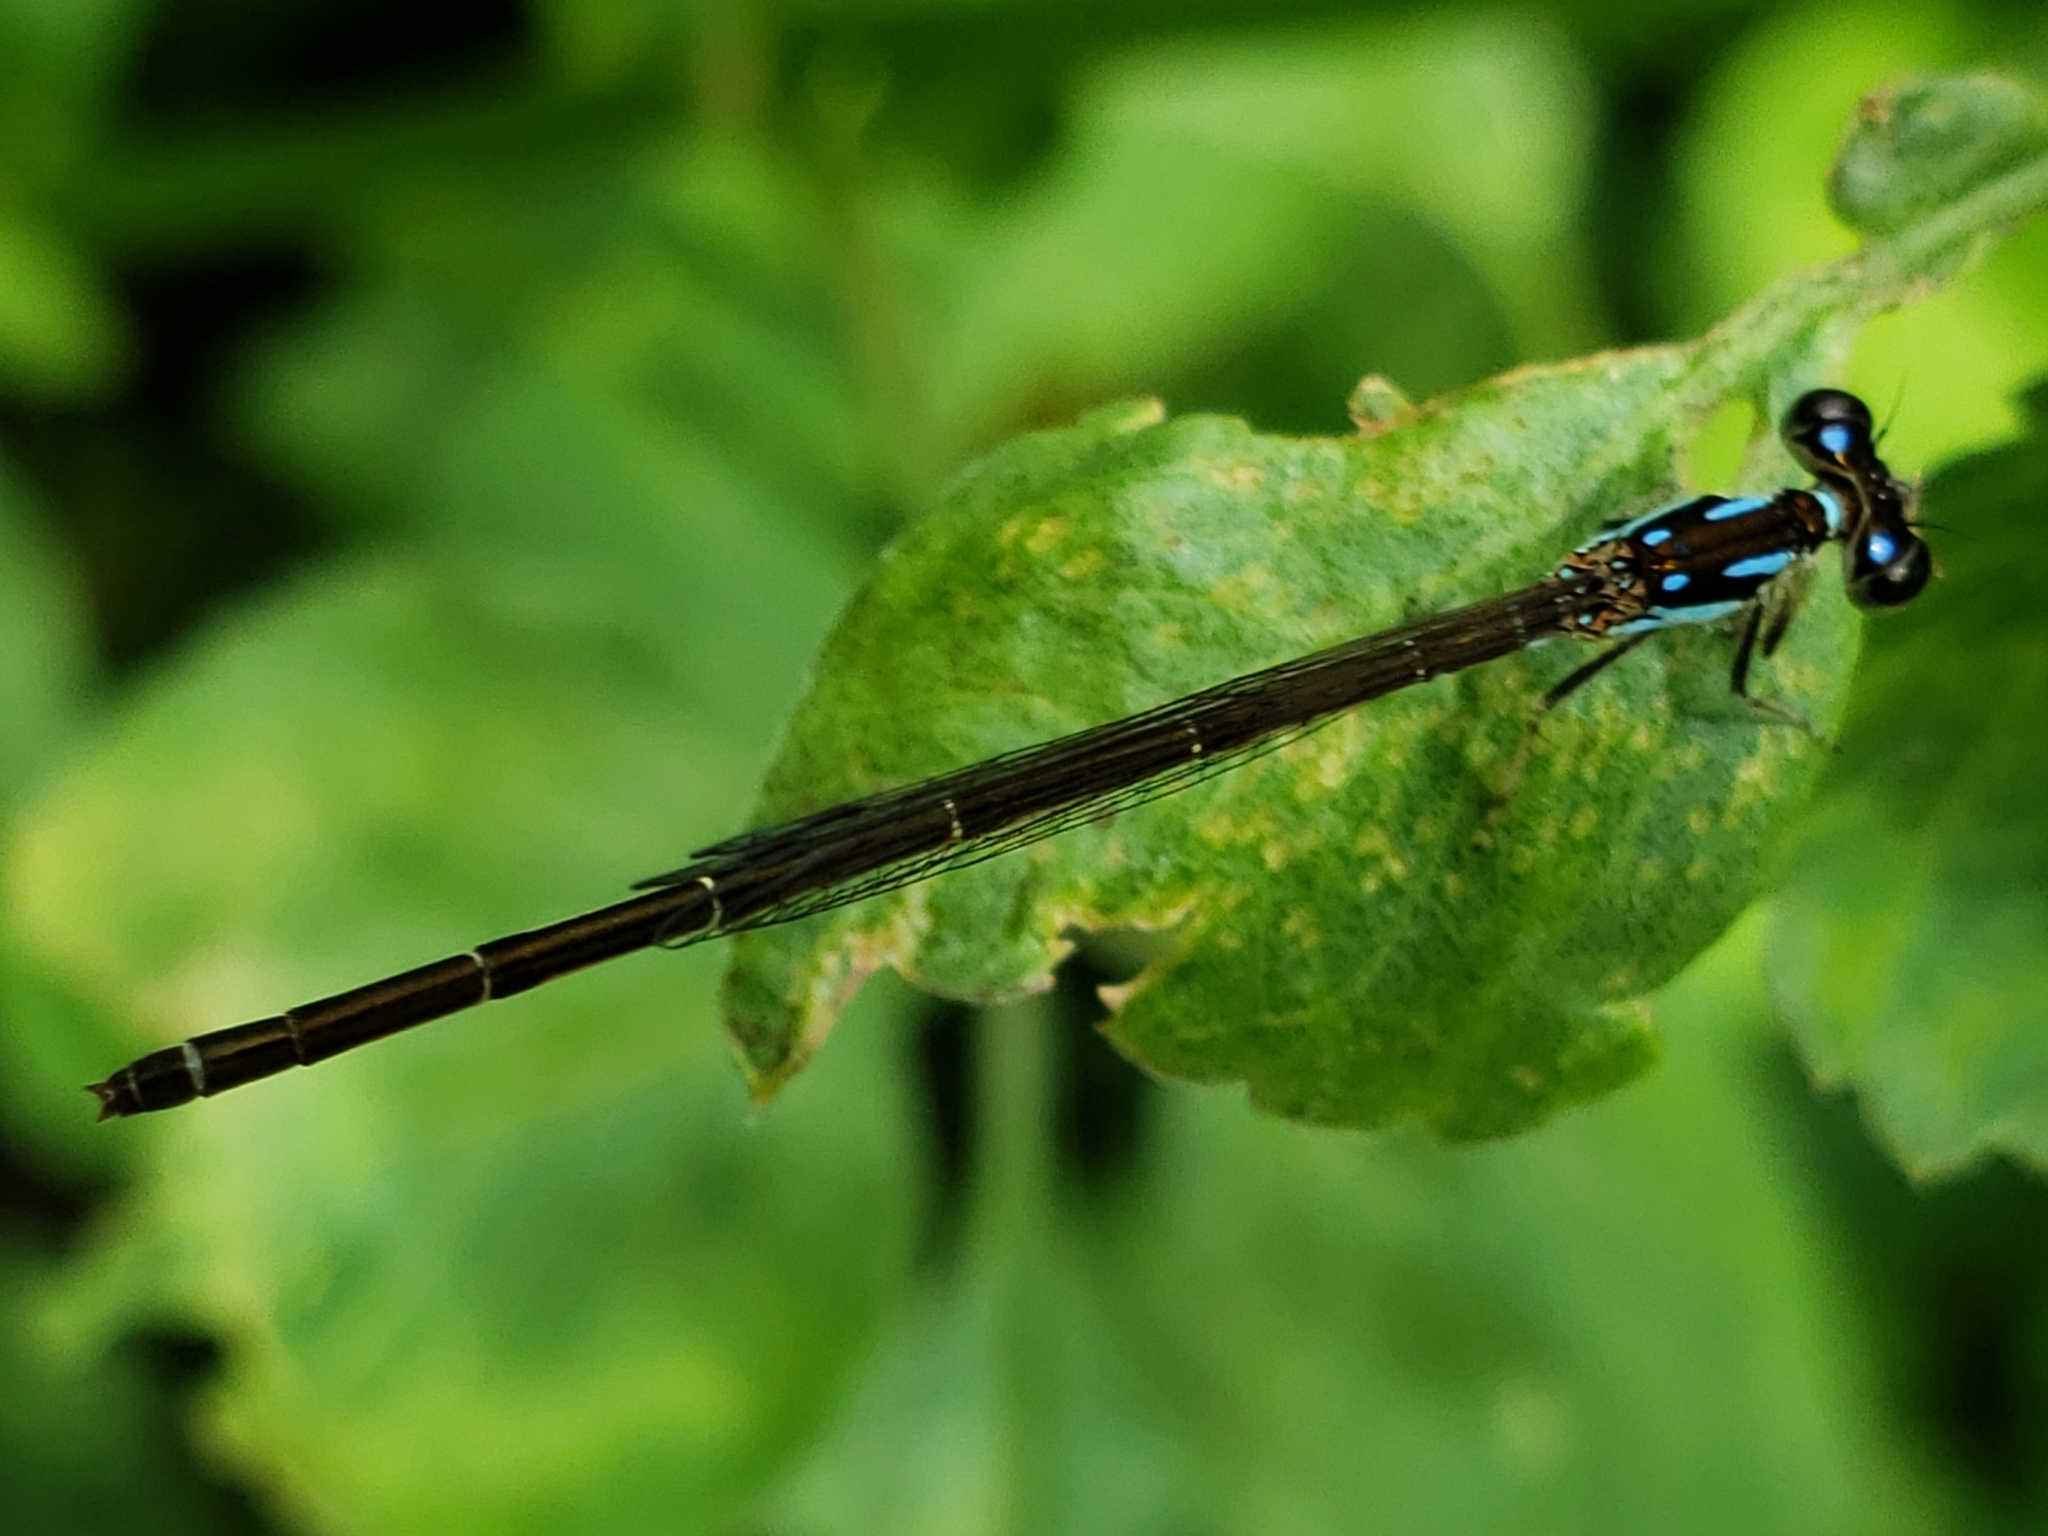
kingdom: Animalia
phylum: Arthropoda
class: Insecta
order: Odonata
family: Coenagrionidae
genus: Ischnura
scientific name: Ischnura posita
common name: Fragile forktail
